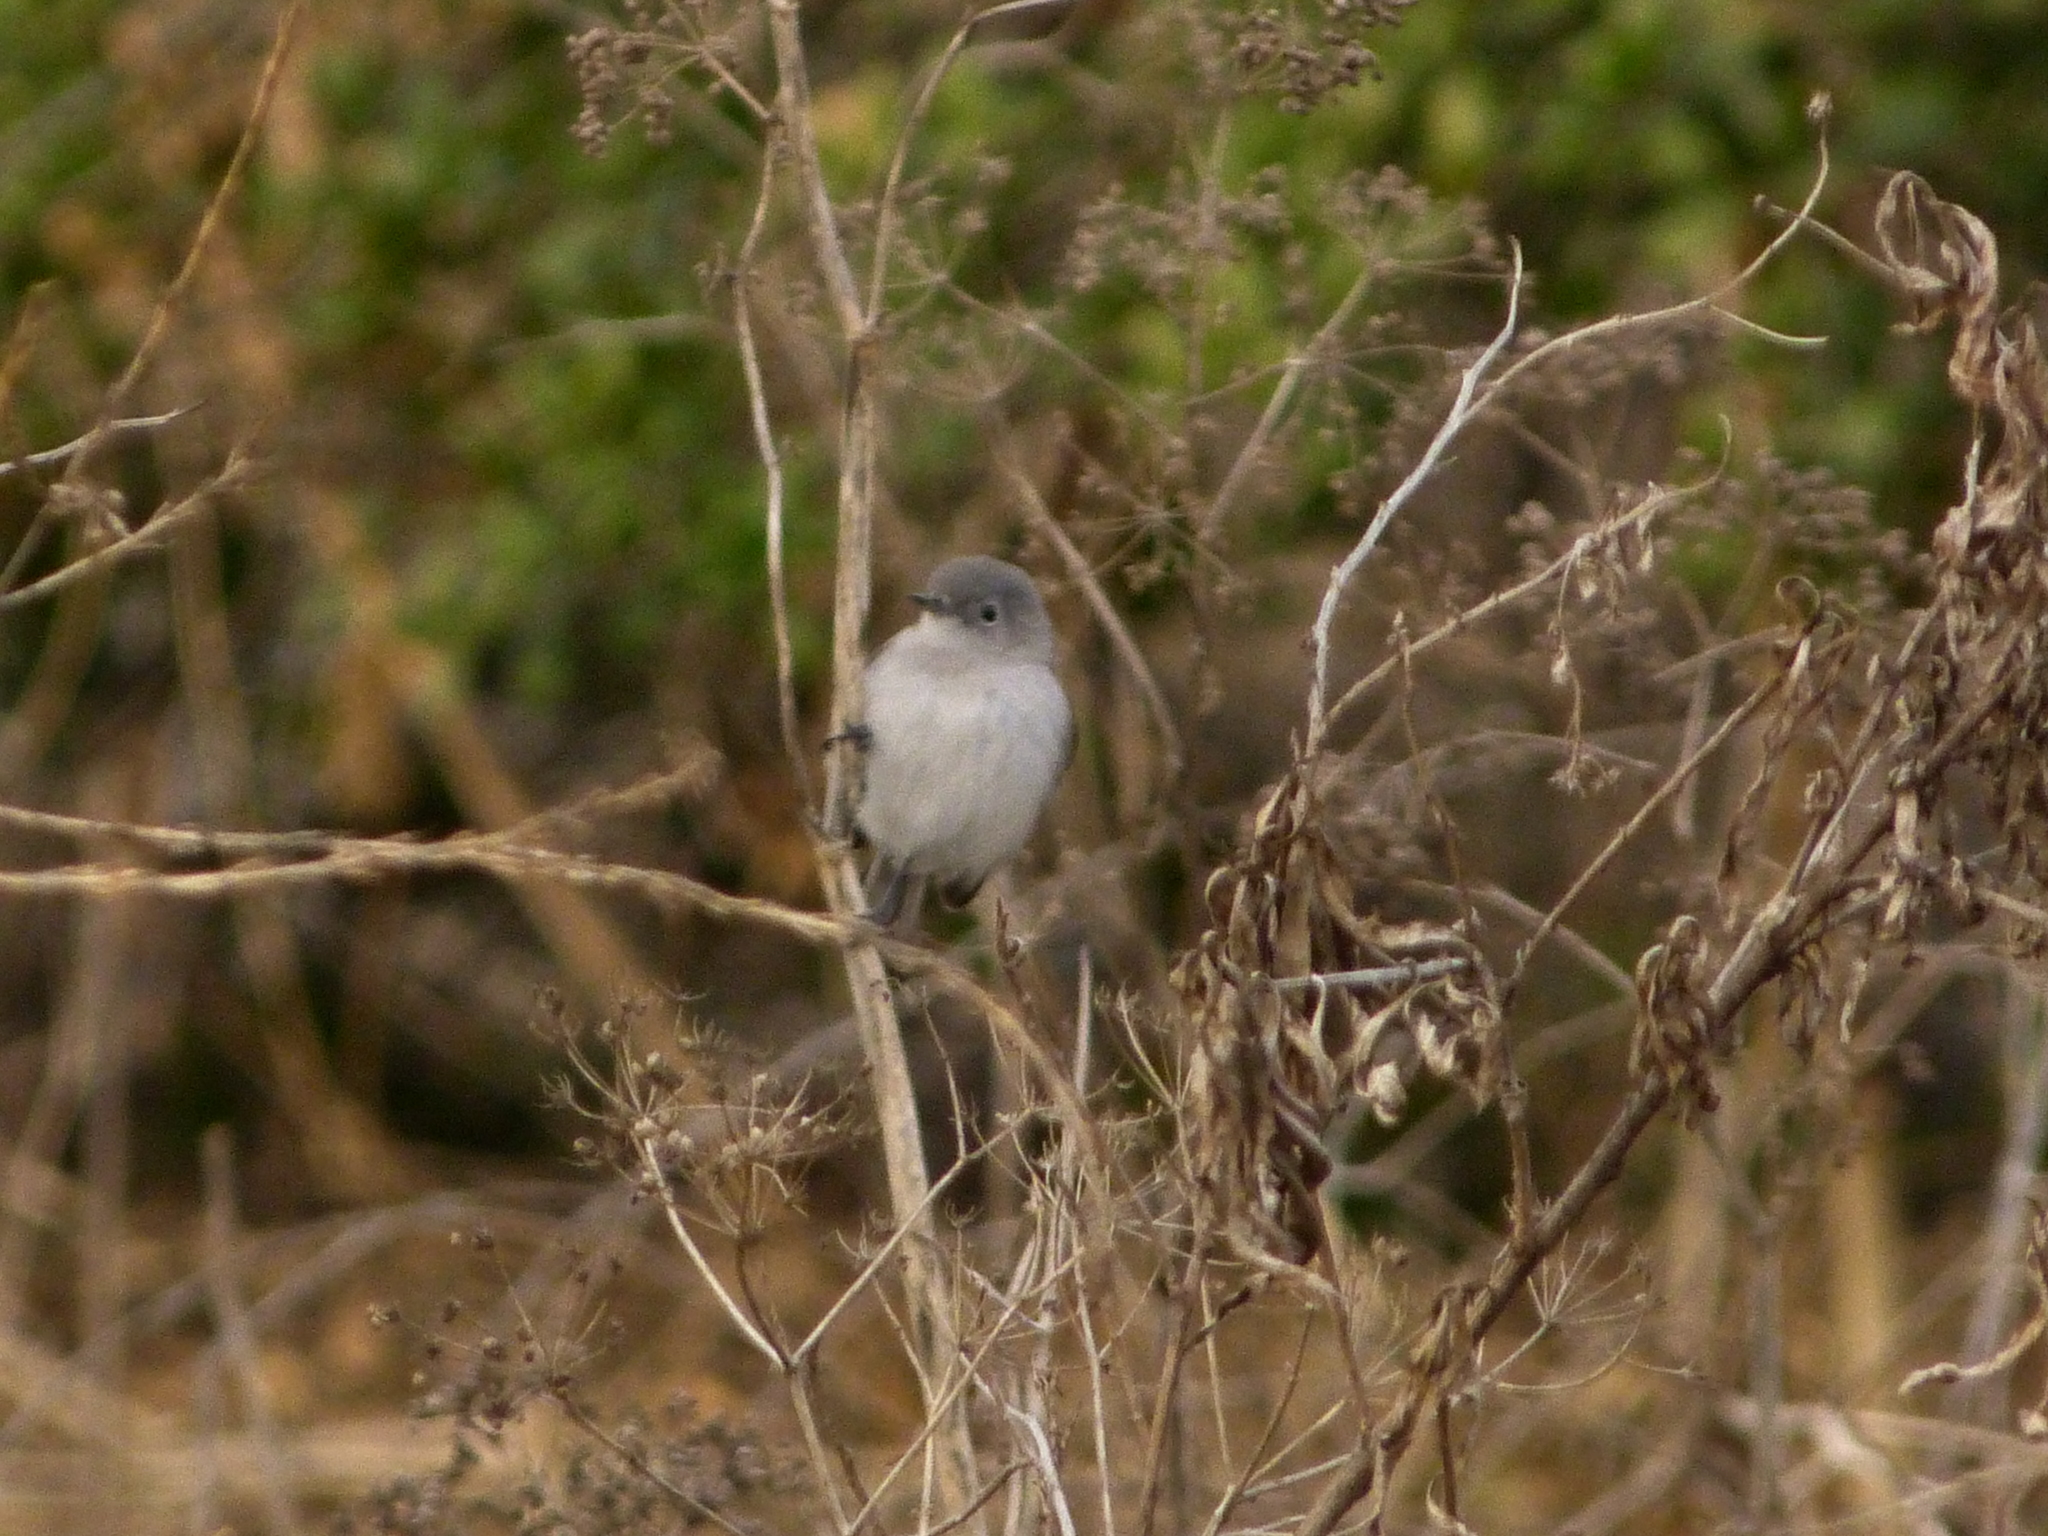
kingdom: Animalia
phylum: Chordata
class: Aves
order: Passeriformes
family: Polioptilidae
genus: Polioptila
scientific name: Polioptila caerulea
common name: Blue-gray gnatcatcher
